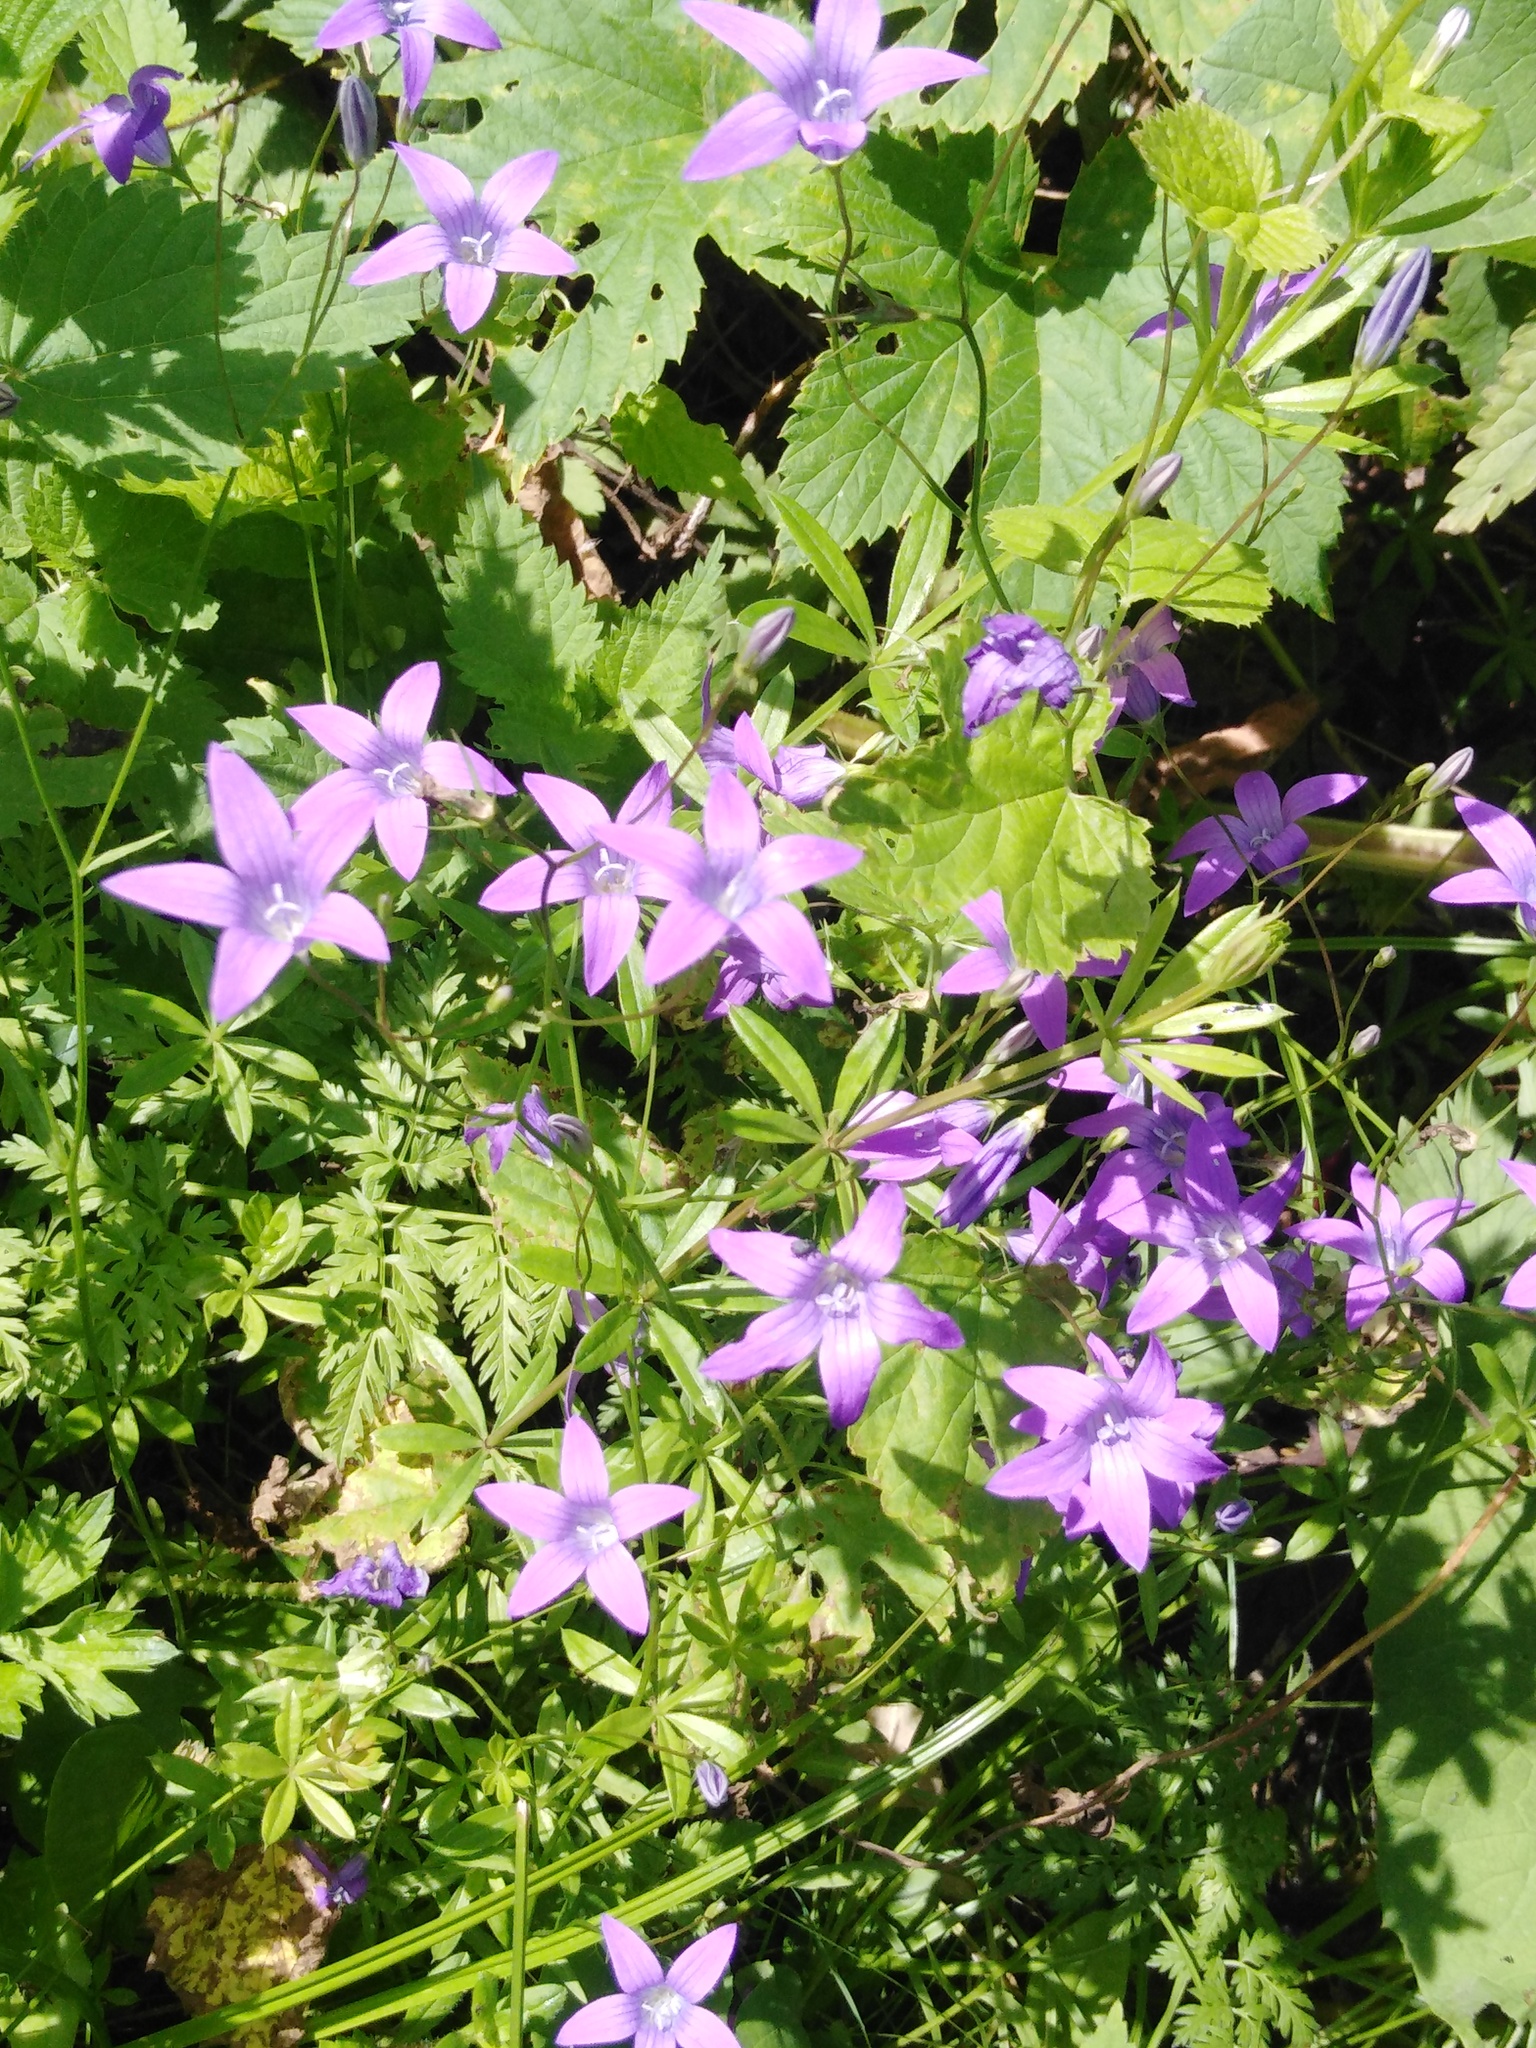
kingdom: Plantae
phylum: Tracheophyta
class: Magnoliopsida
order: Asterales
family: Campanulaceae
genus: Campanula
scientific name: Campanula patula
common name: Spreading bellflower
